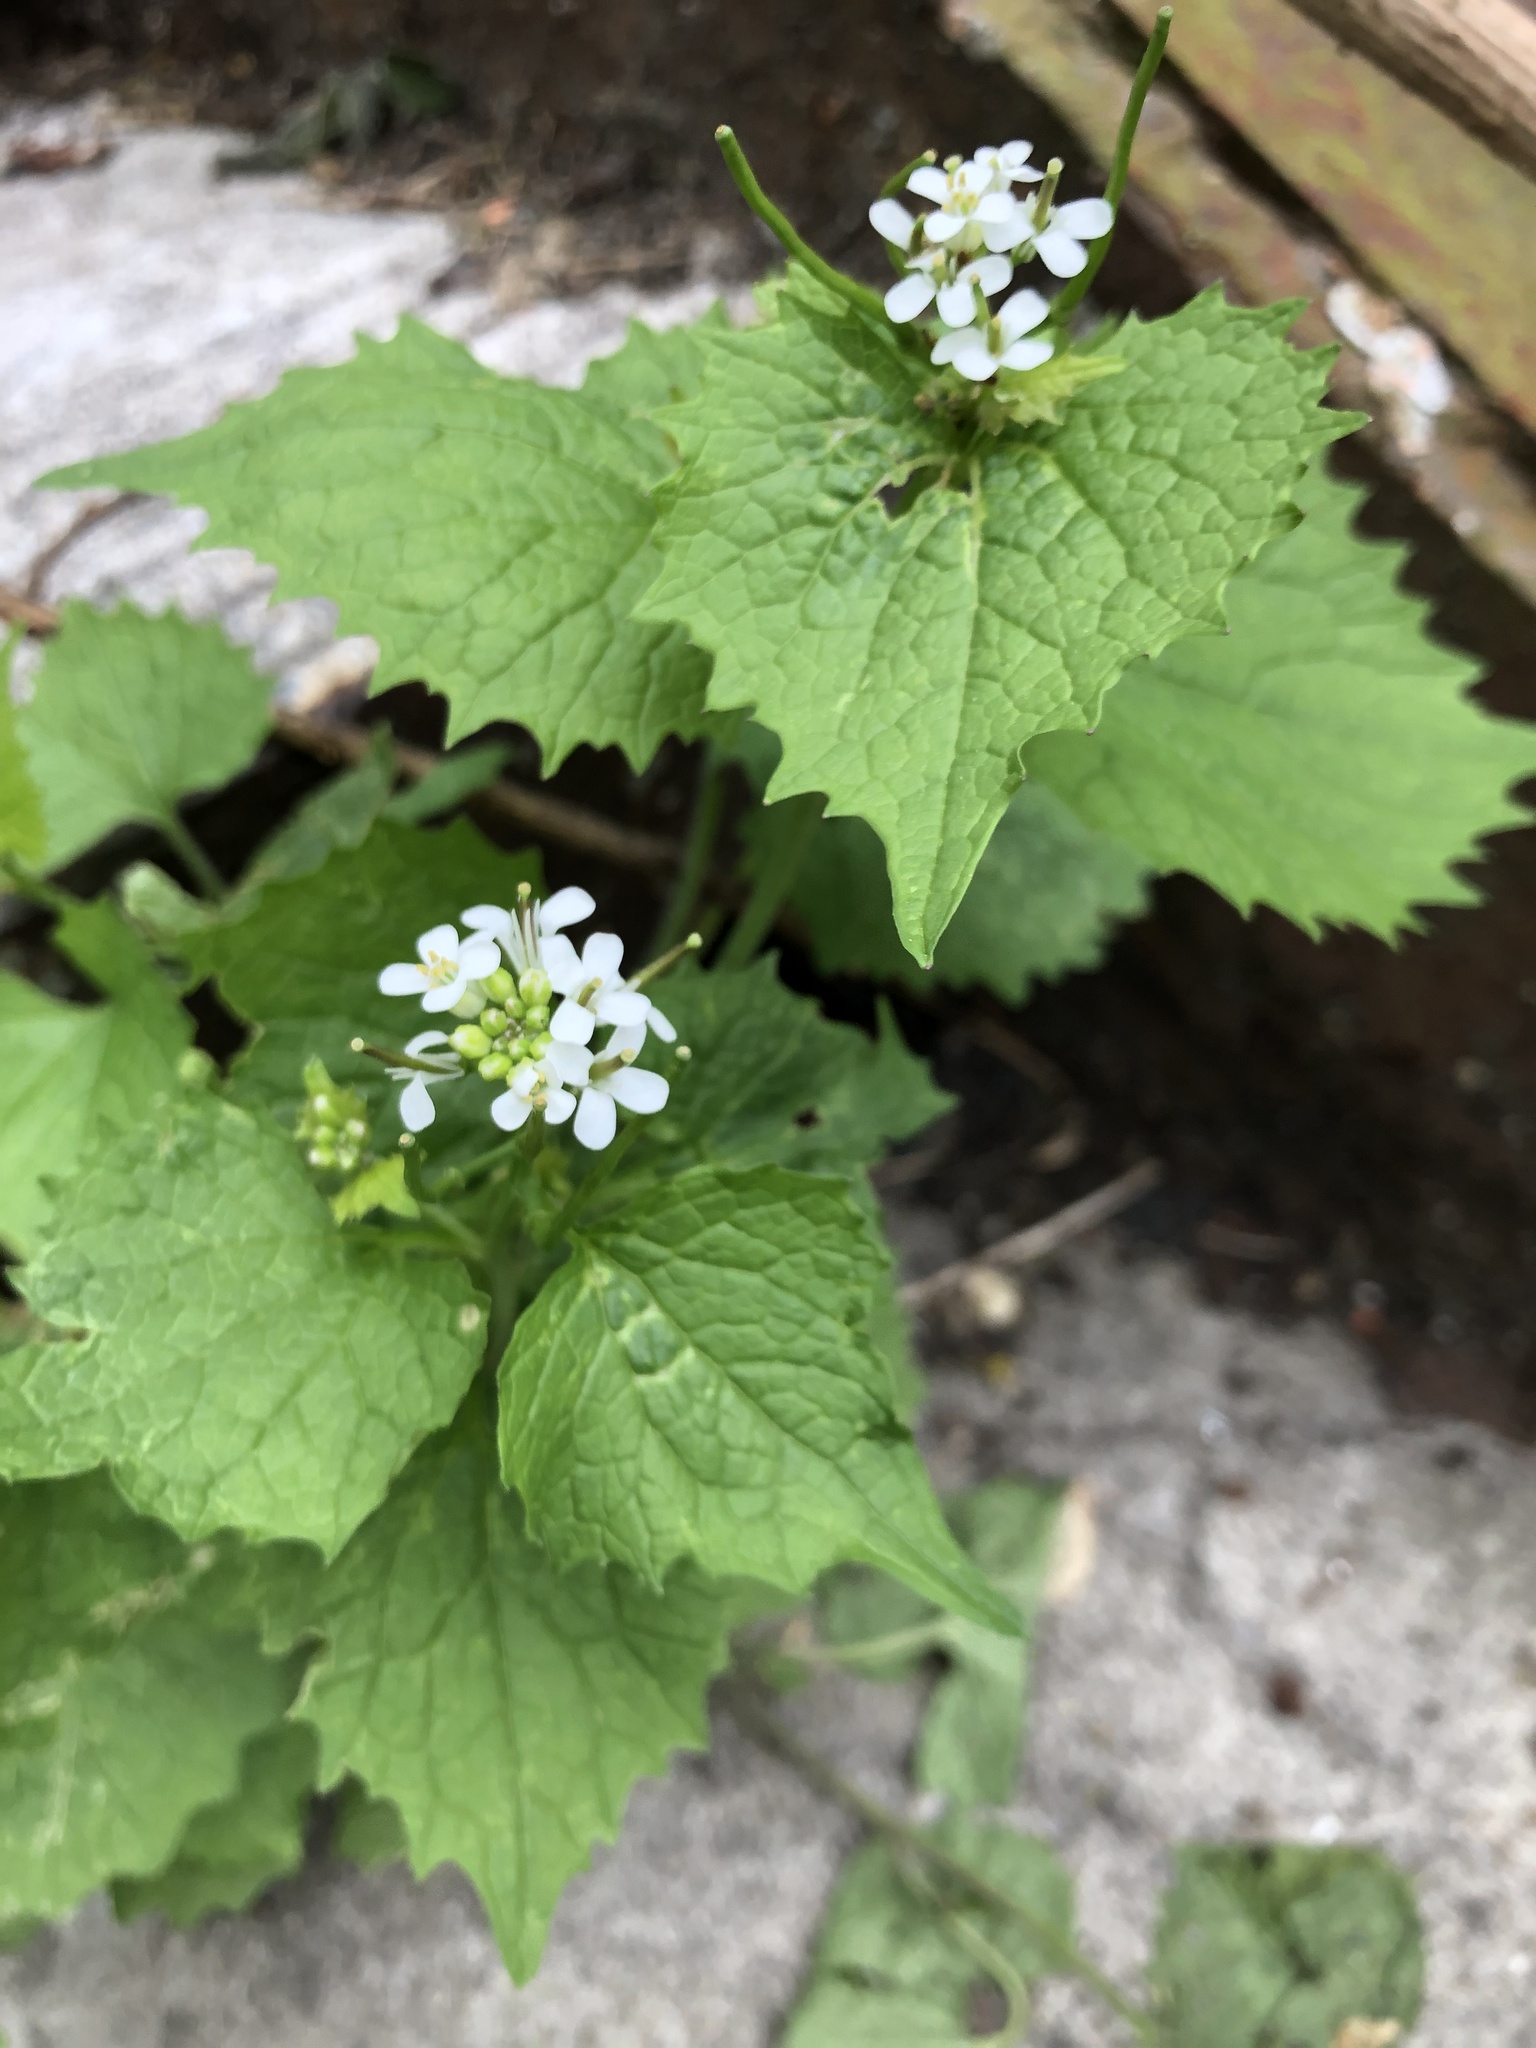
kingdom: Plantae
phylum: Tracheophyta
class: Magnoliopsida
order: Brassicales
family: Brassicaceae
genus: Alliaria
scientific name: Alliaria petiolata
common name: Garlic mustard
